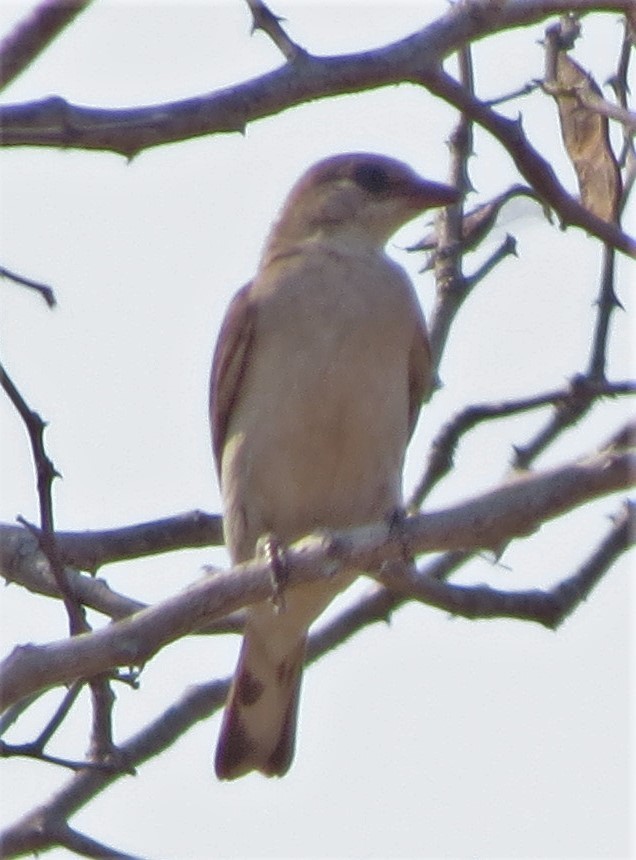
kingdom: Animalia
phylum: Chordata
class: Aves
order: Piciformes
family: Indicatoridae
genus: Indicator
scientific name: Indicator indicator
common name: Greater honeyguide
